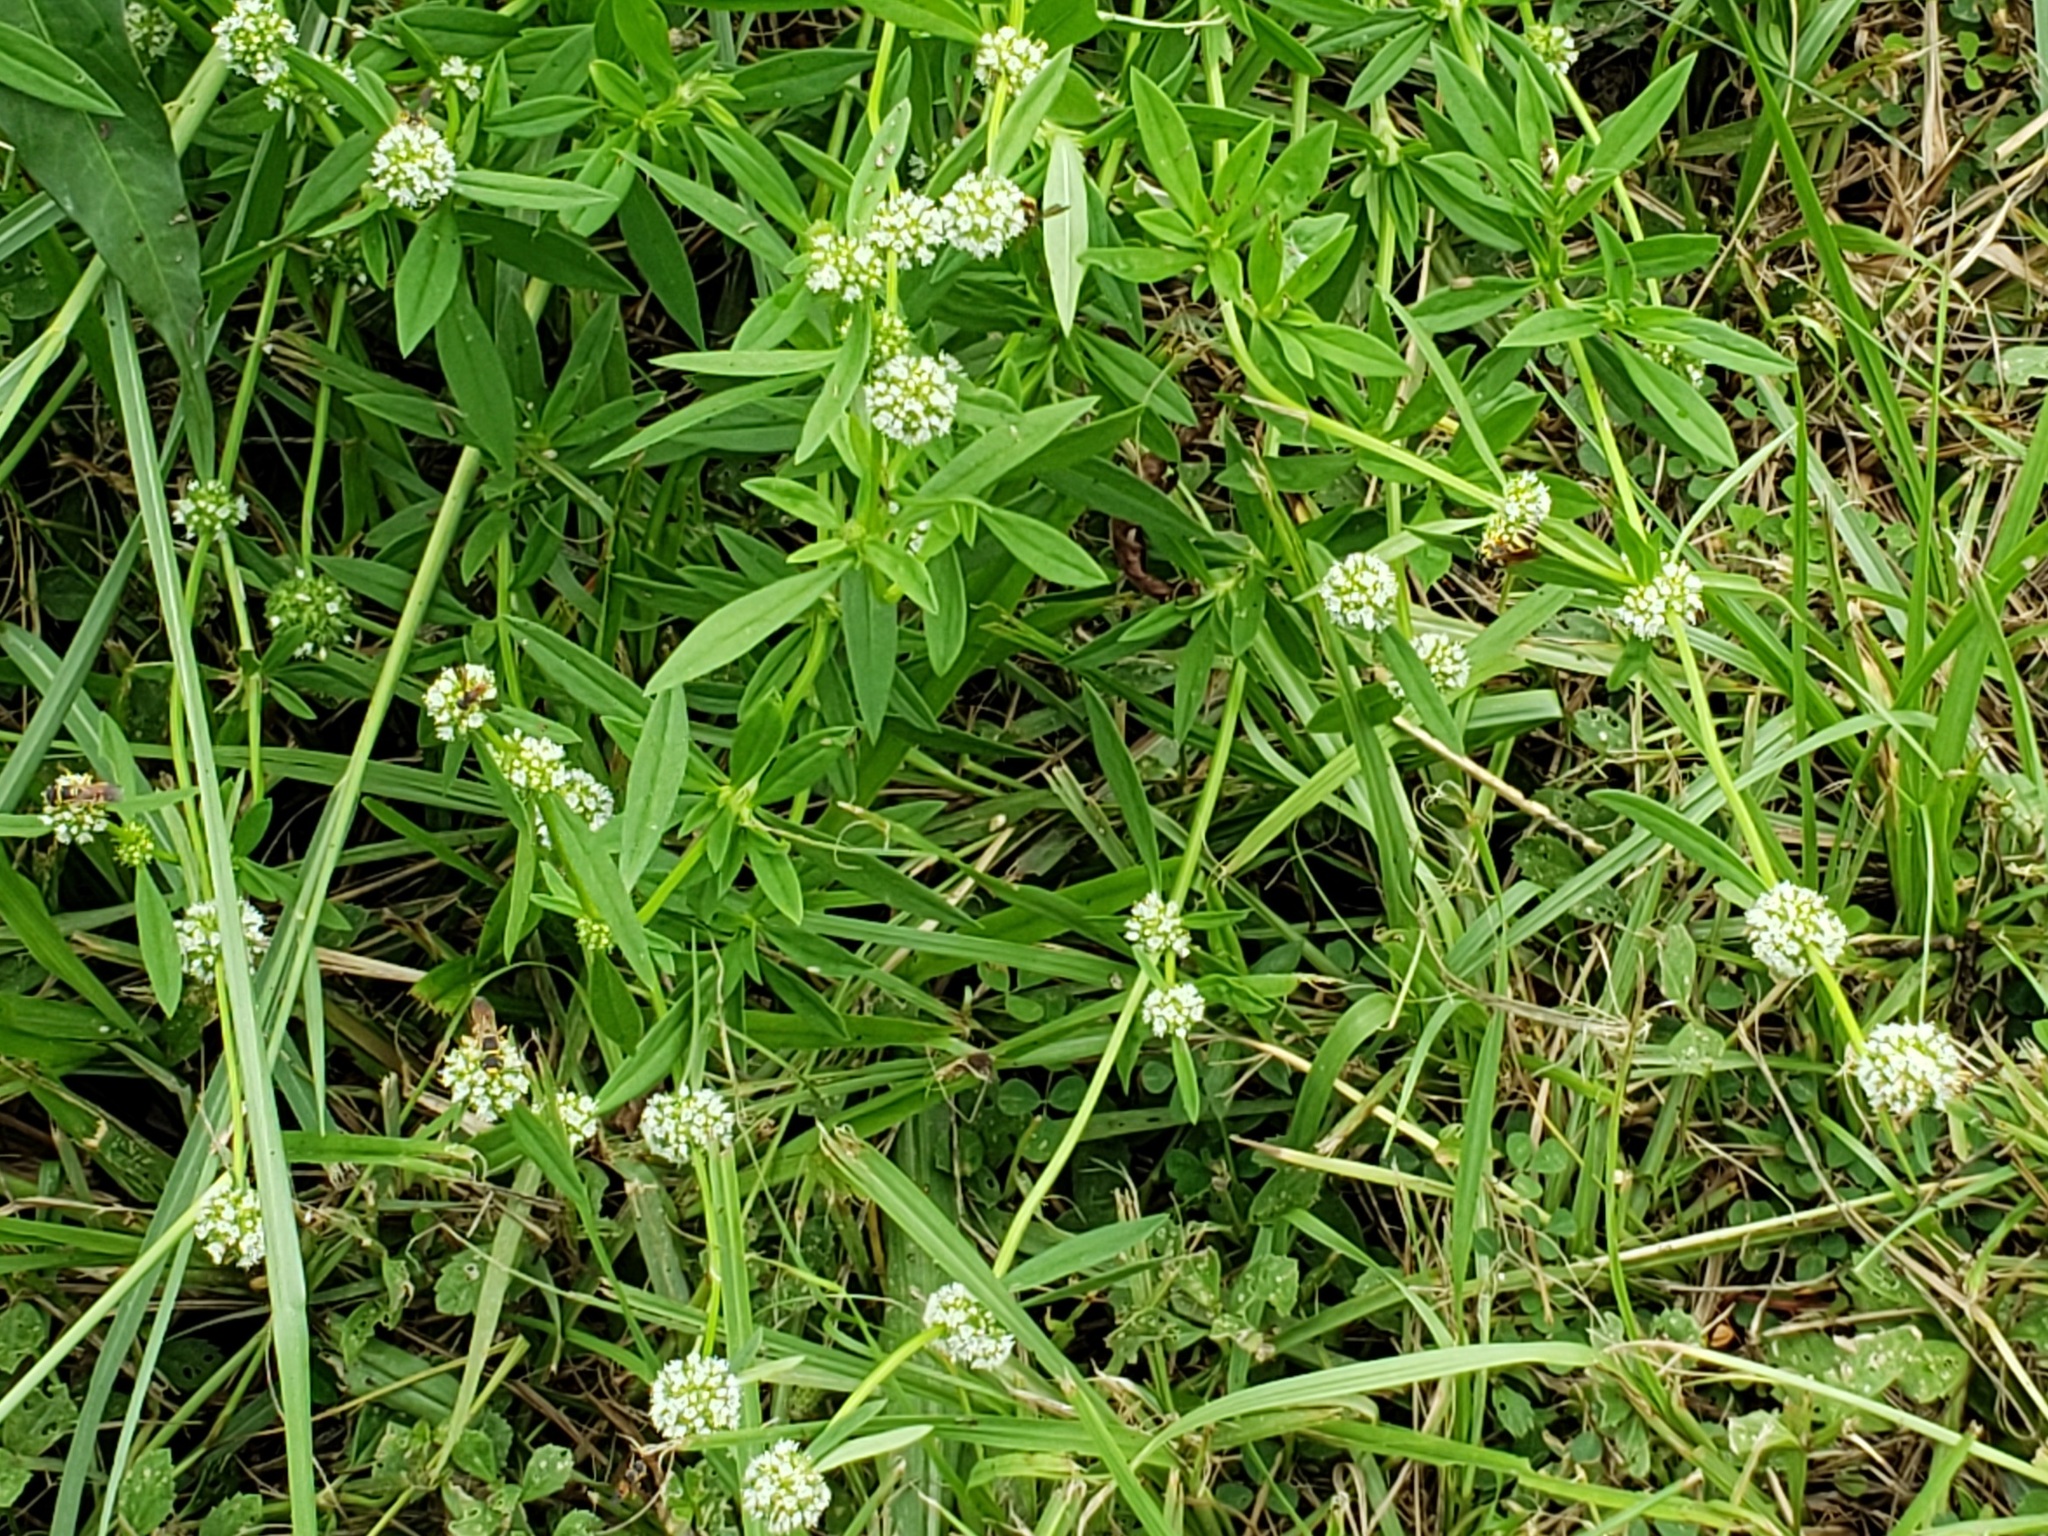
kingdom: Plantae
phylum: Tracheophyta
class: Magnoliopsida
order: Gentianales
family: Rubiaceae
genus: Spermacoce
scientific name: Spermacoce verticillata
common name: Shrubby false buttonweed
